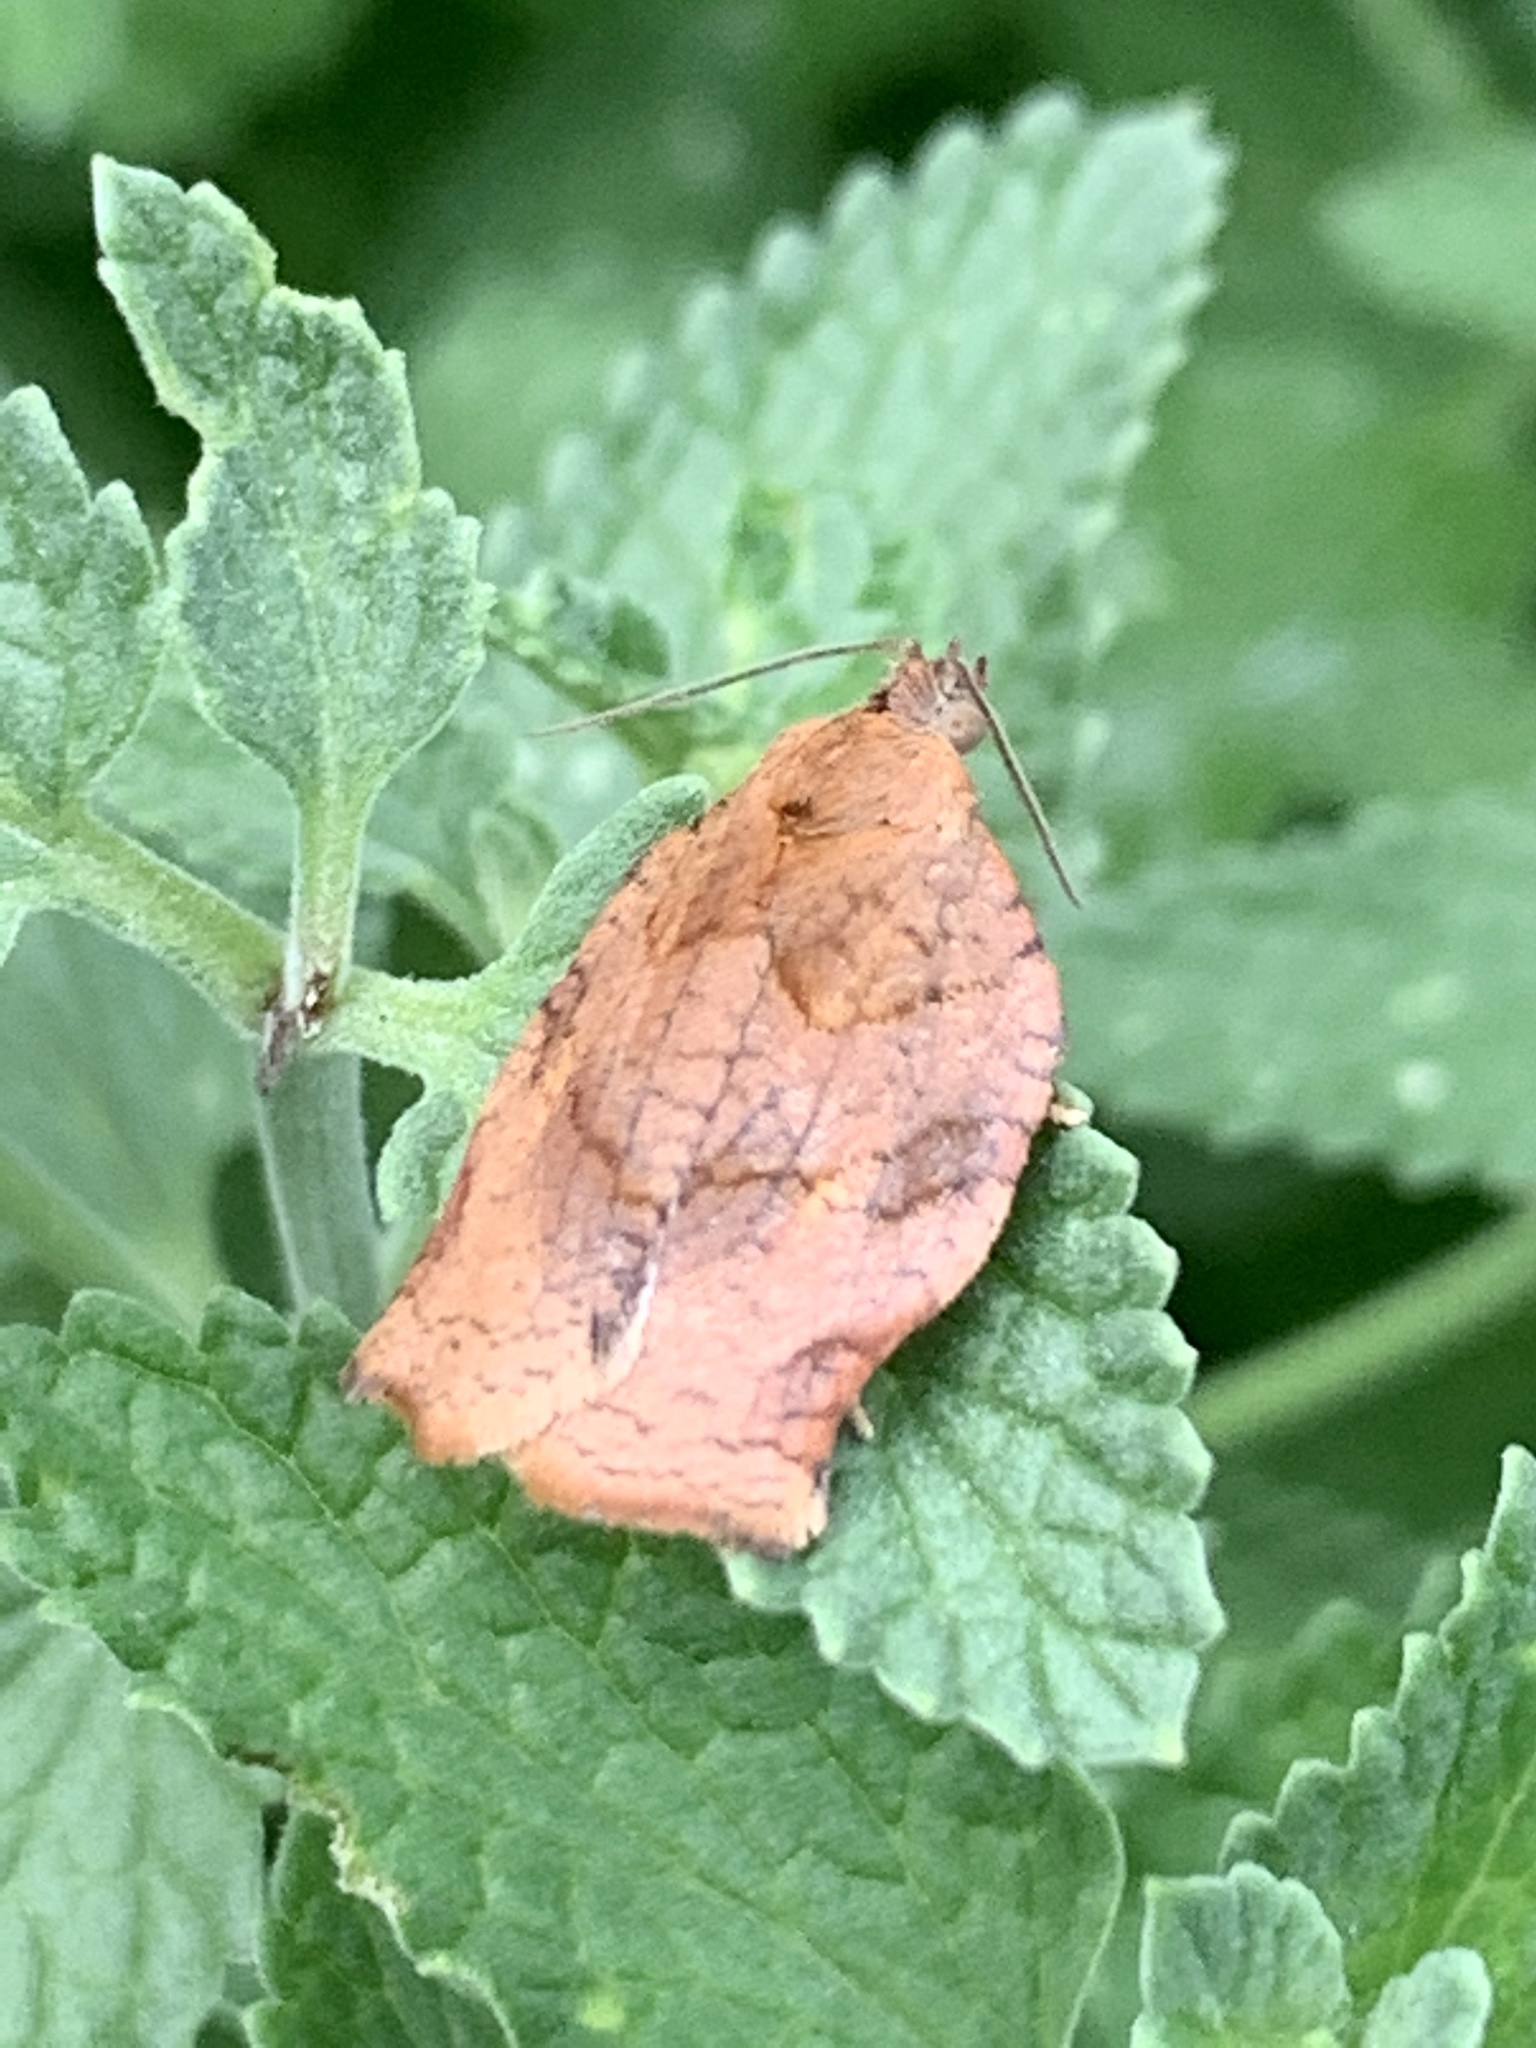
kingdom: Animalia
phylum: Arthropoda
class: Insecta
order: Lepidoptera
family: Tortricidae
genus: Archips
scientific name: Archips purpurana
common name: Omnivorous leafroller
